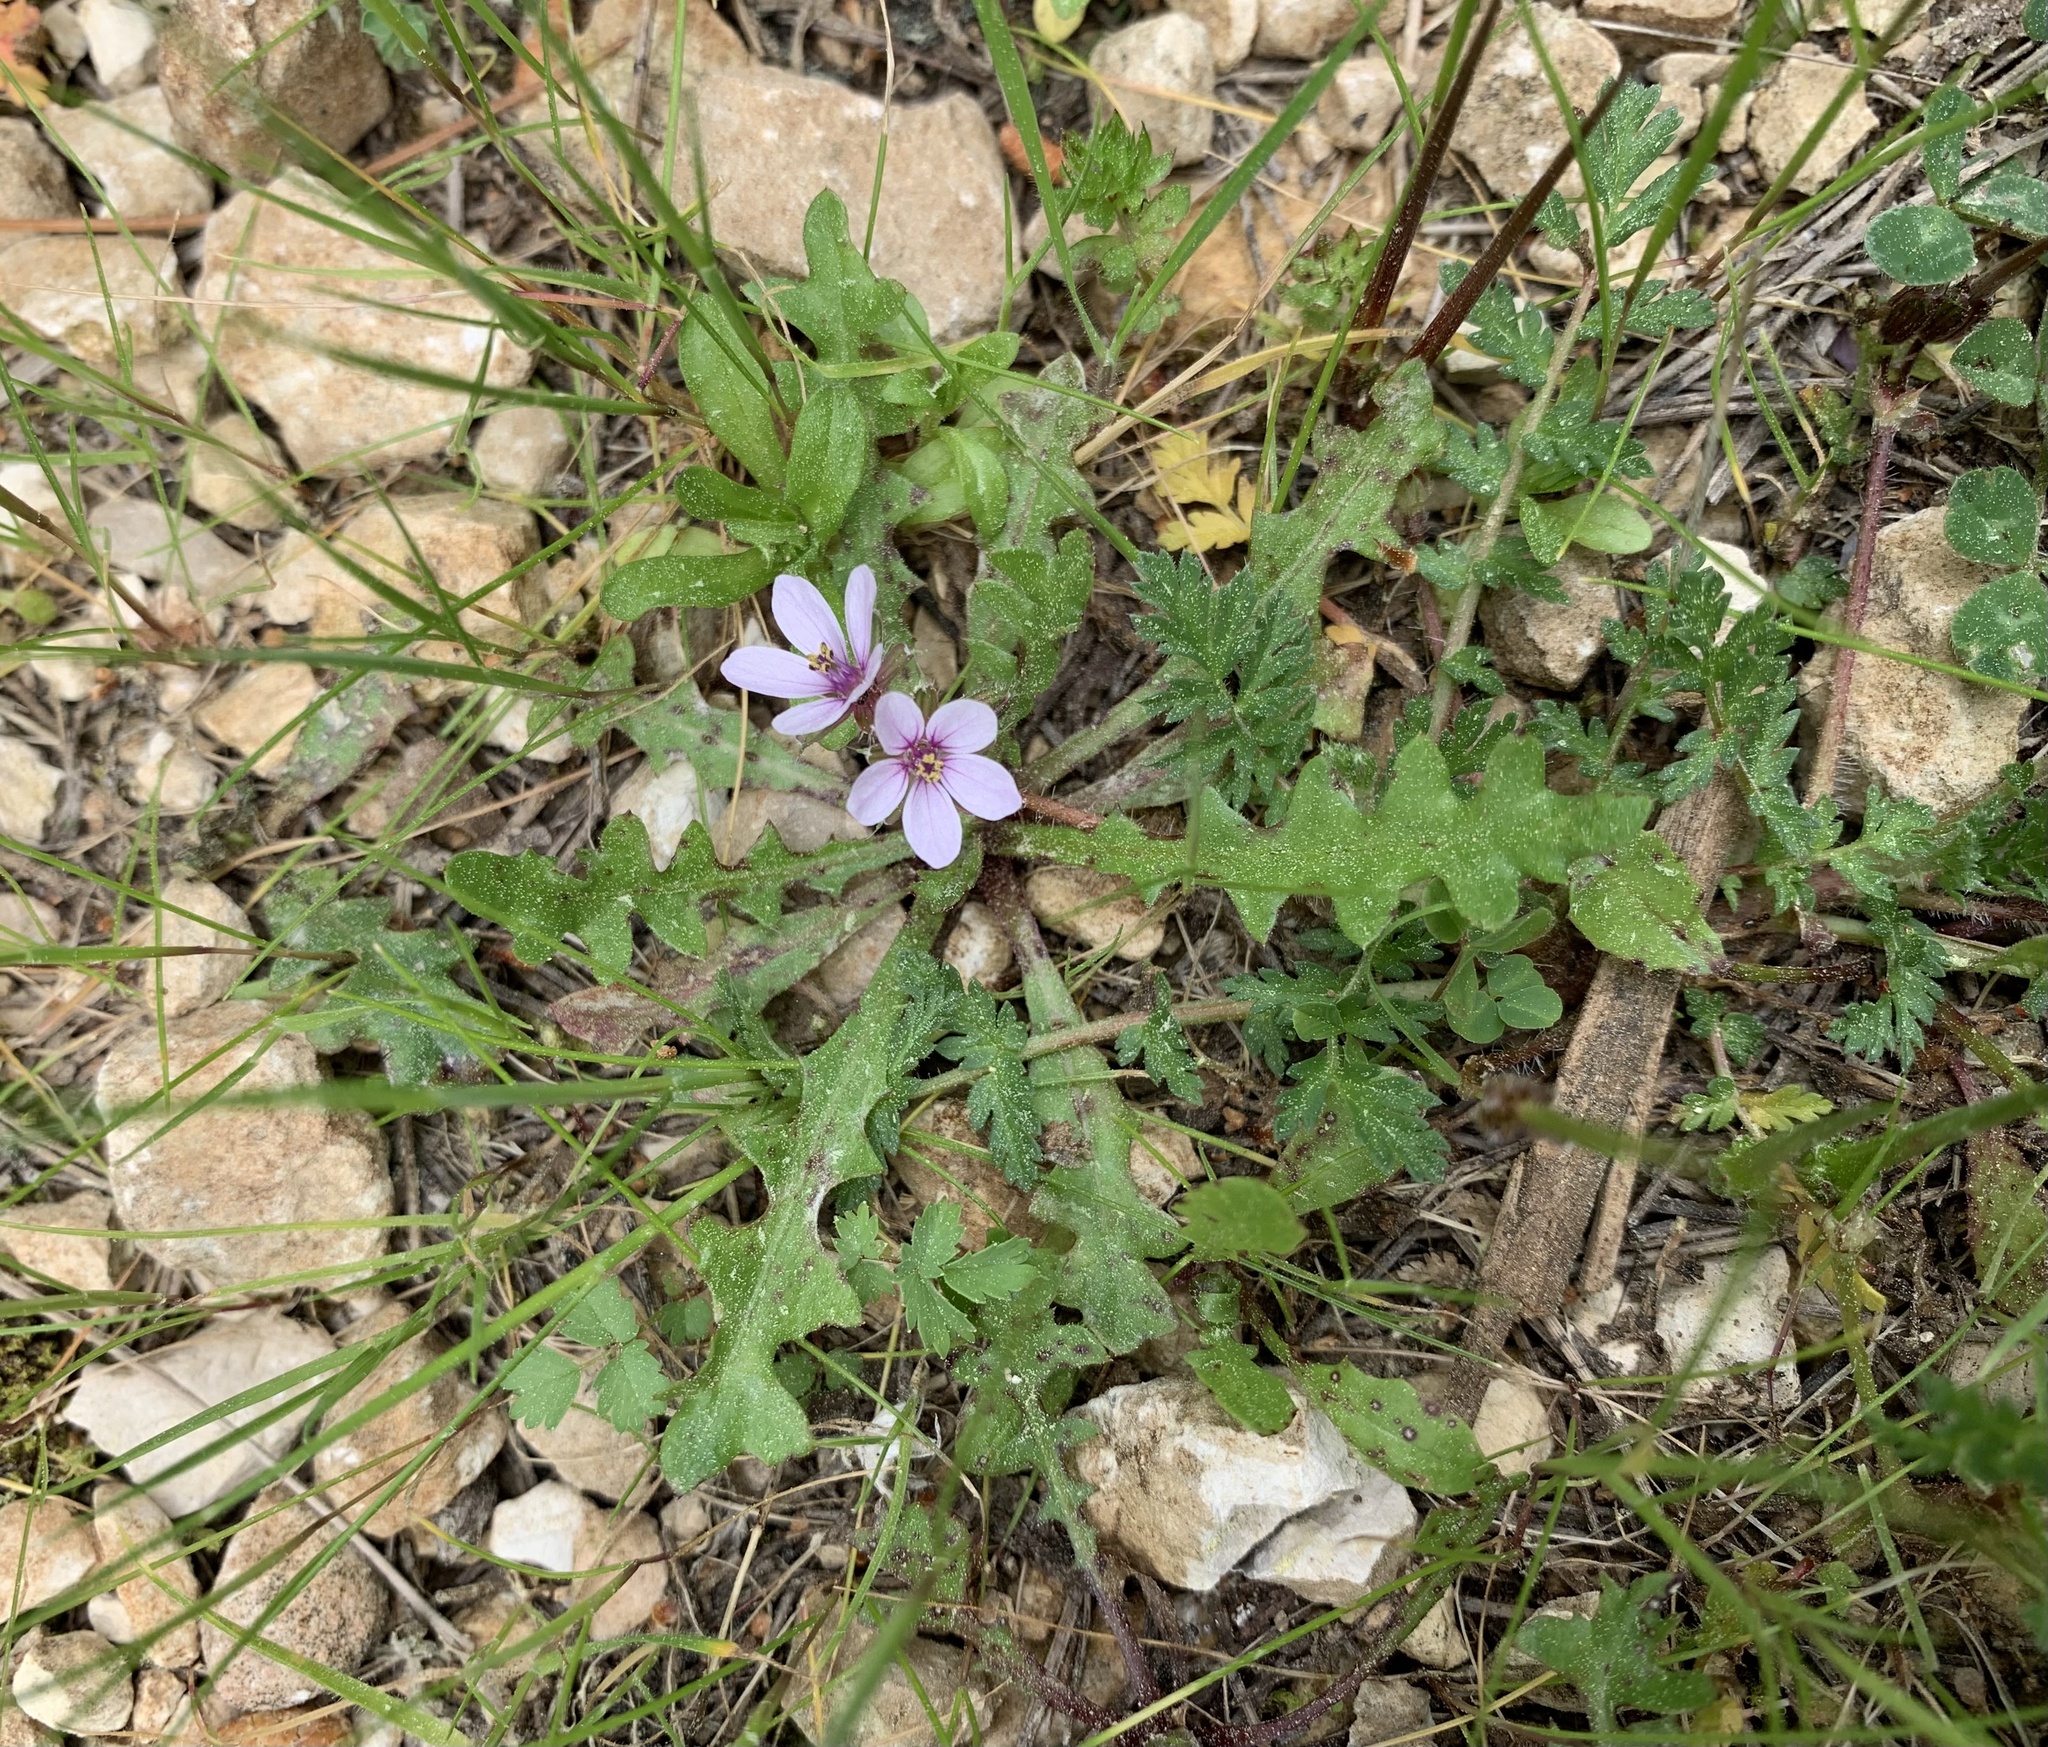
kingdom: Plantae
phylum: Tracheophyta
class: Magnoliopsida
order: Geraniales
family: Geraniaceae
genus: Erodium
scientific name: Erodium cicutarium
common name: Common stork's-bill
